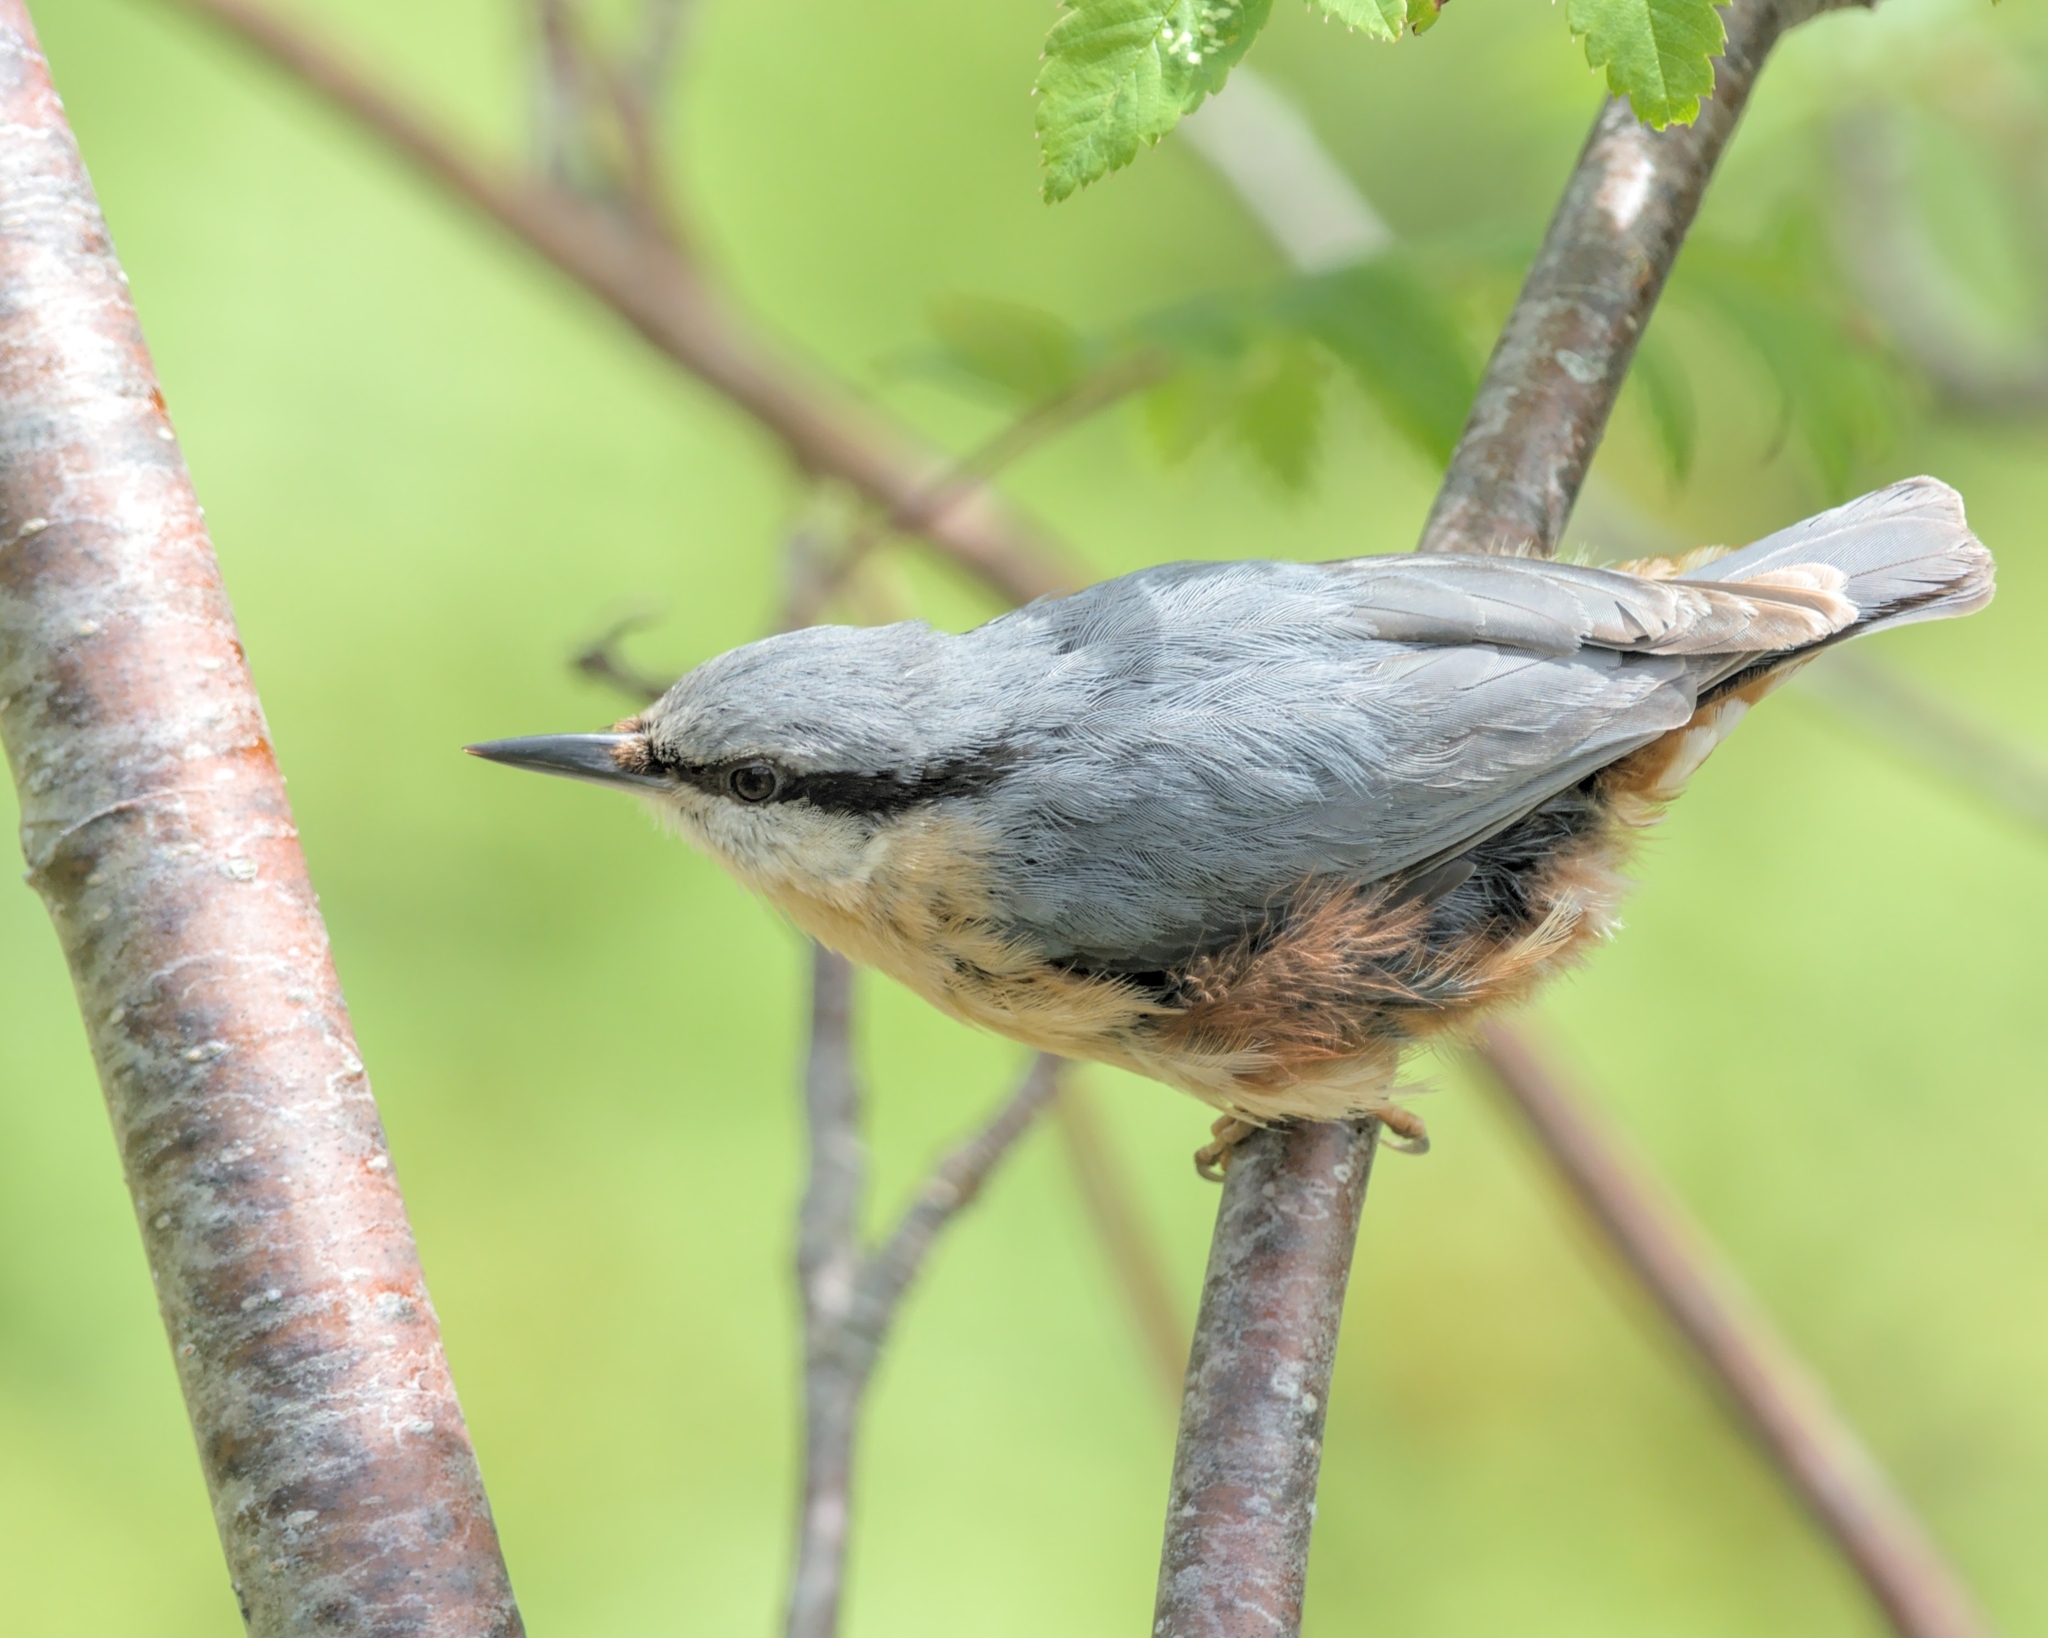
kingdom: Animalia
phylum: Chordata
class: Aves
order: Passeriformes
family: Sittidae
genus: Sitta
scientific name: Sitta europaea
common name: Eurasian nuthatch
